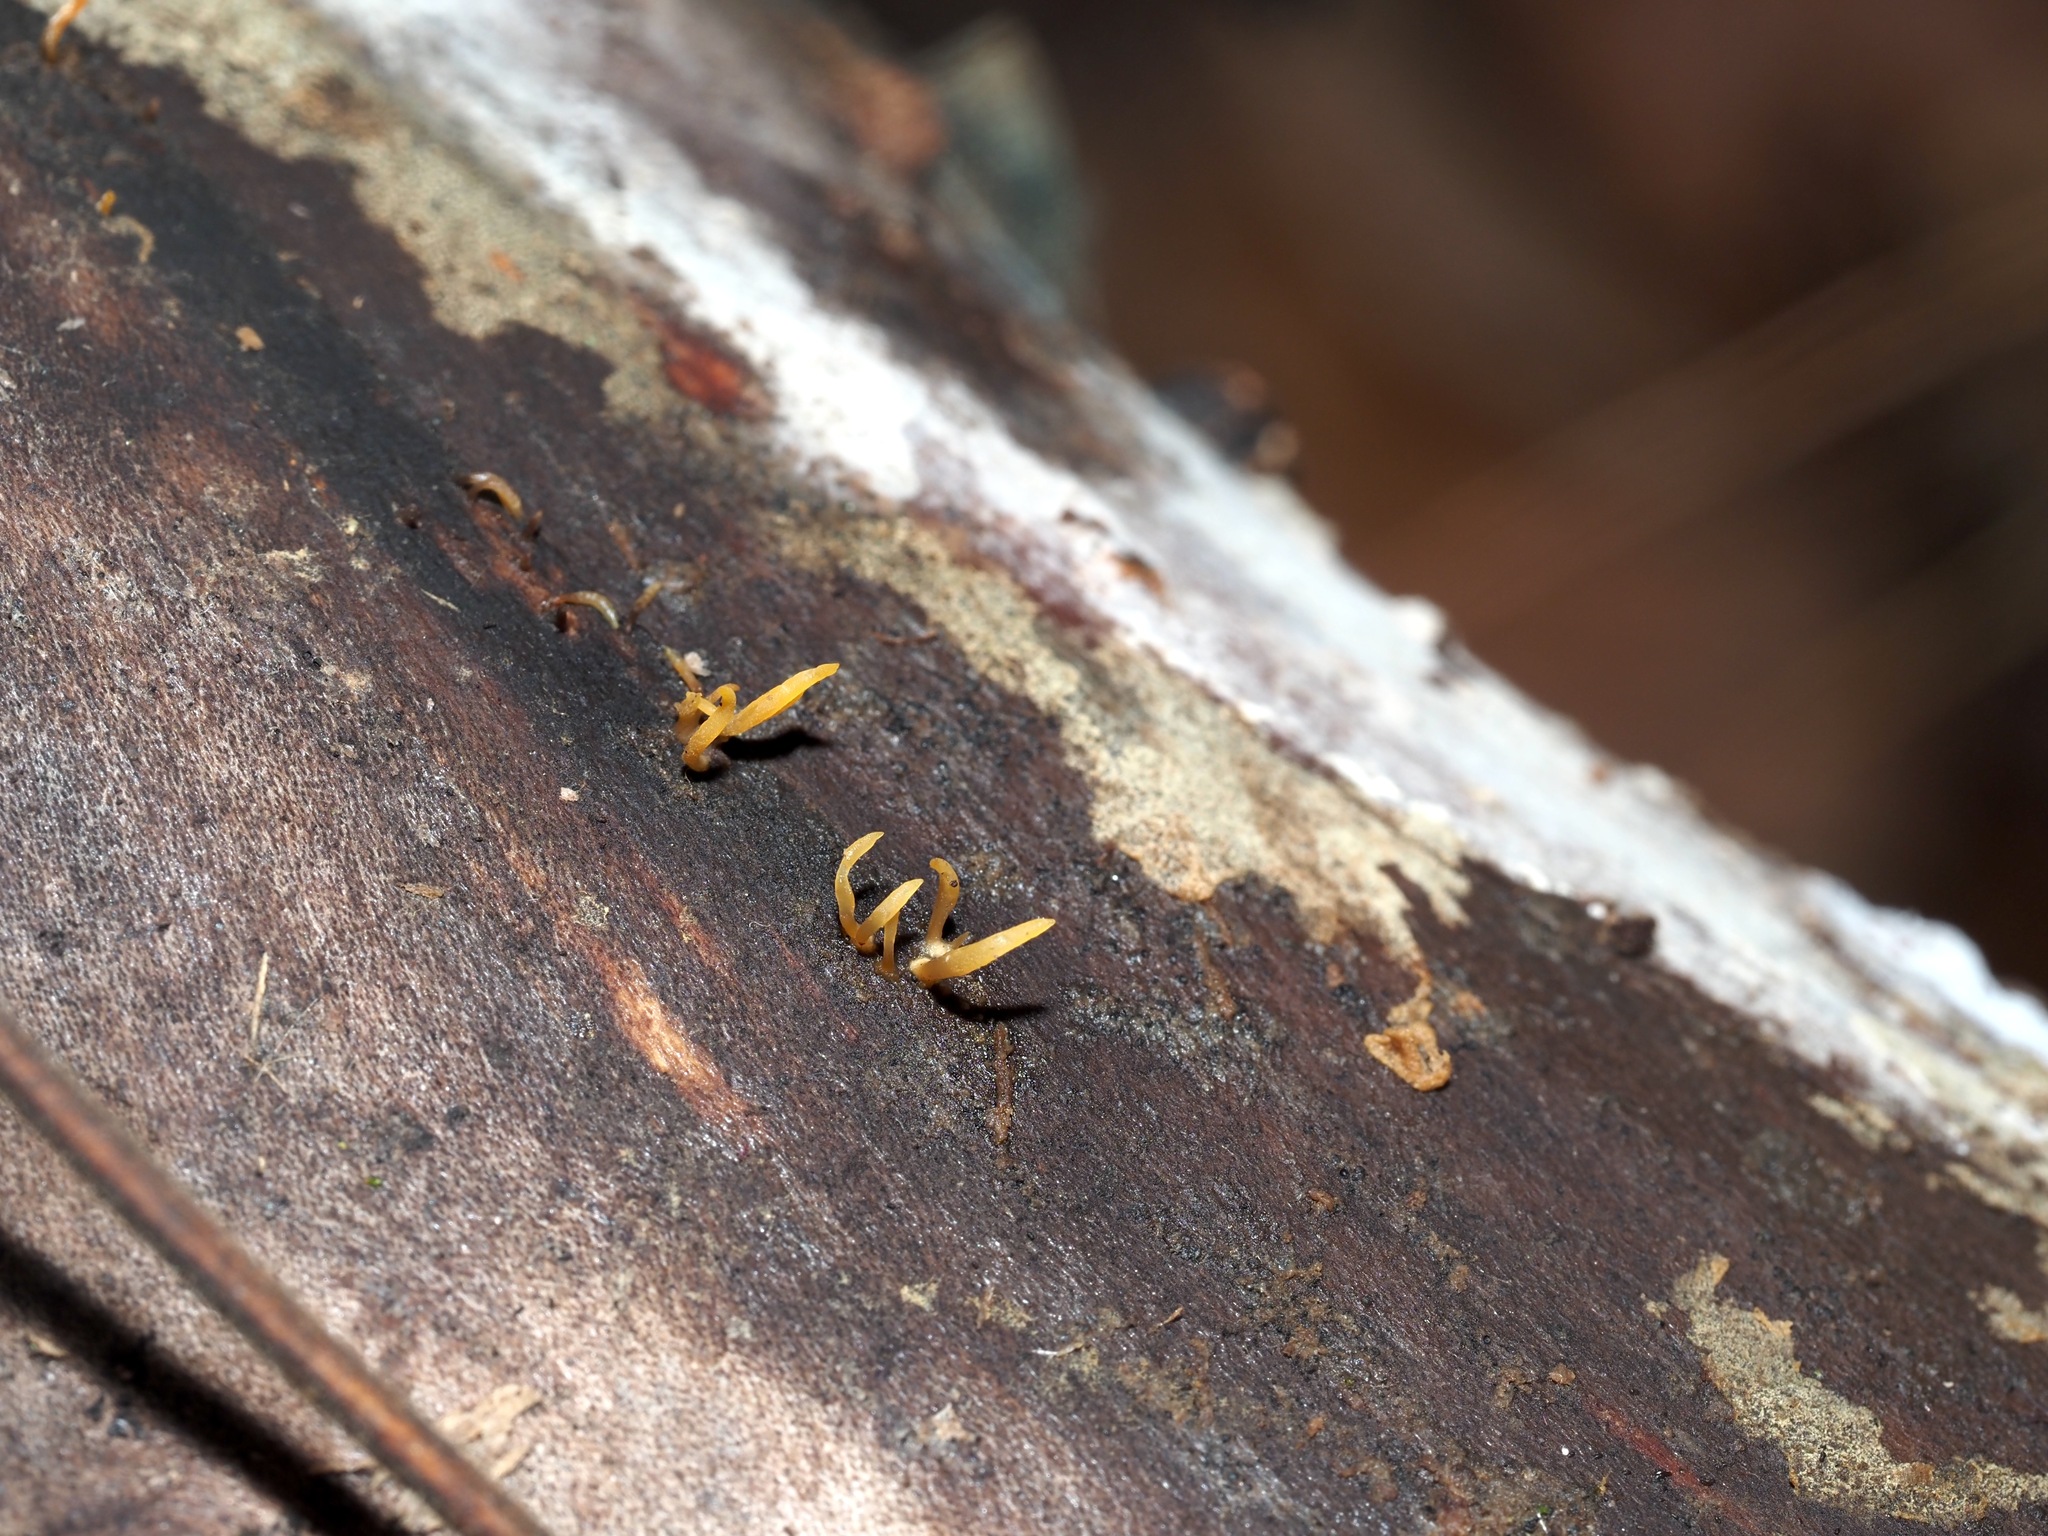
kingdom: Fungi
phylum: Basidiomycota
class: Dacrymycetes
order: Dacrymycetales
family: Dacrymycetaceae
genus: Calocera
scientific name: Calocera cornea
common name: Small stagshorn
